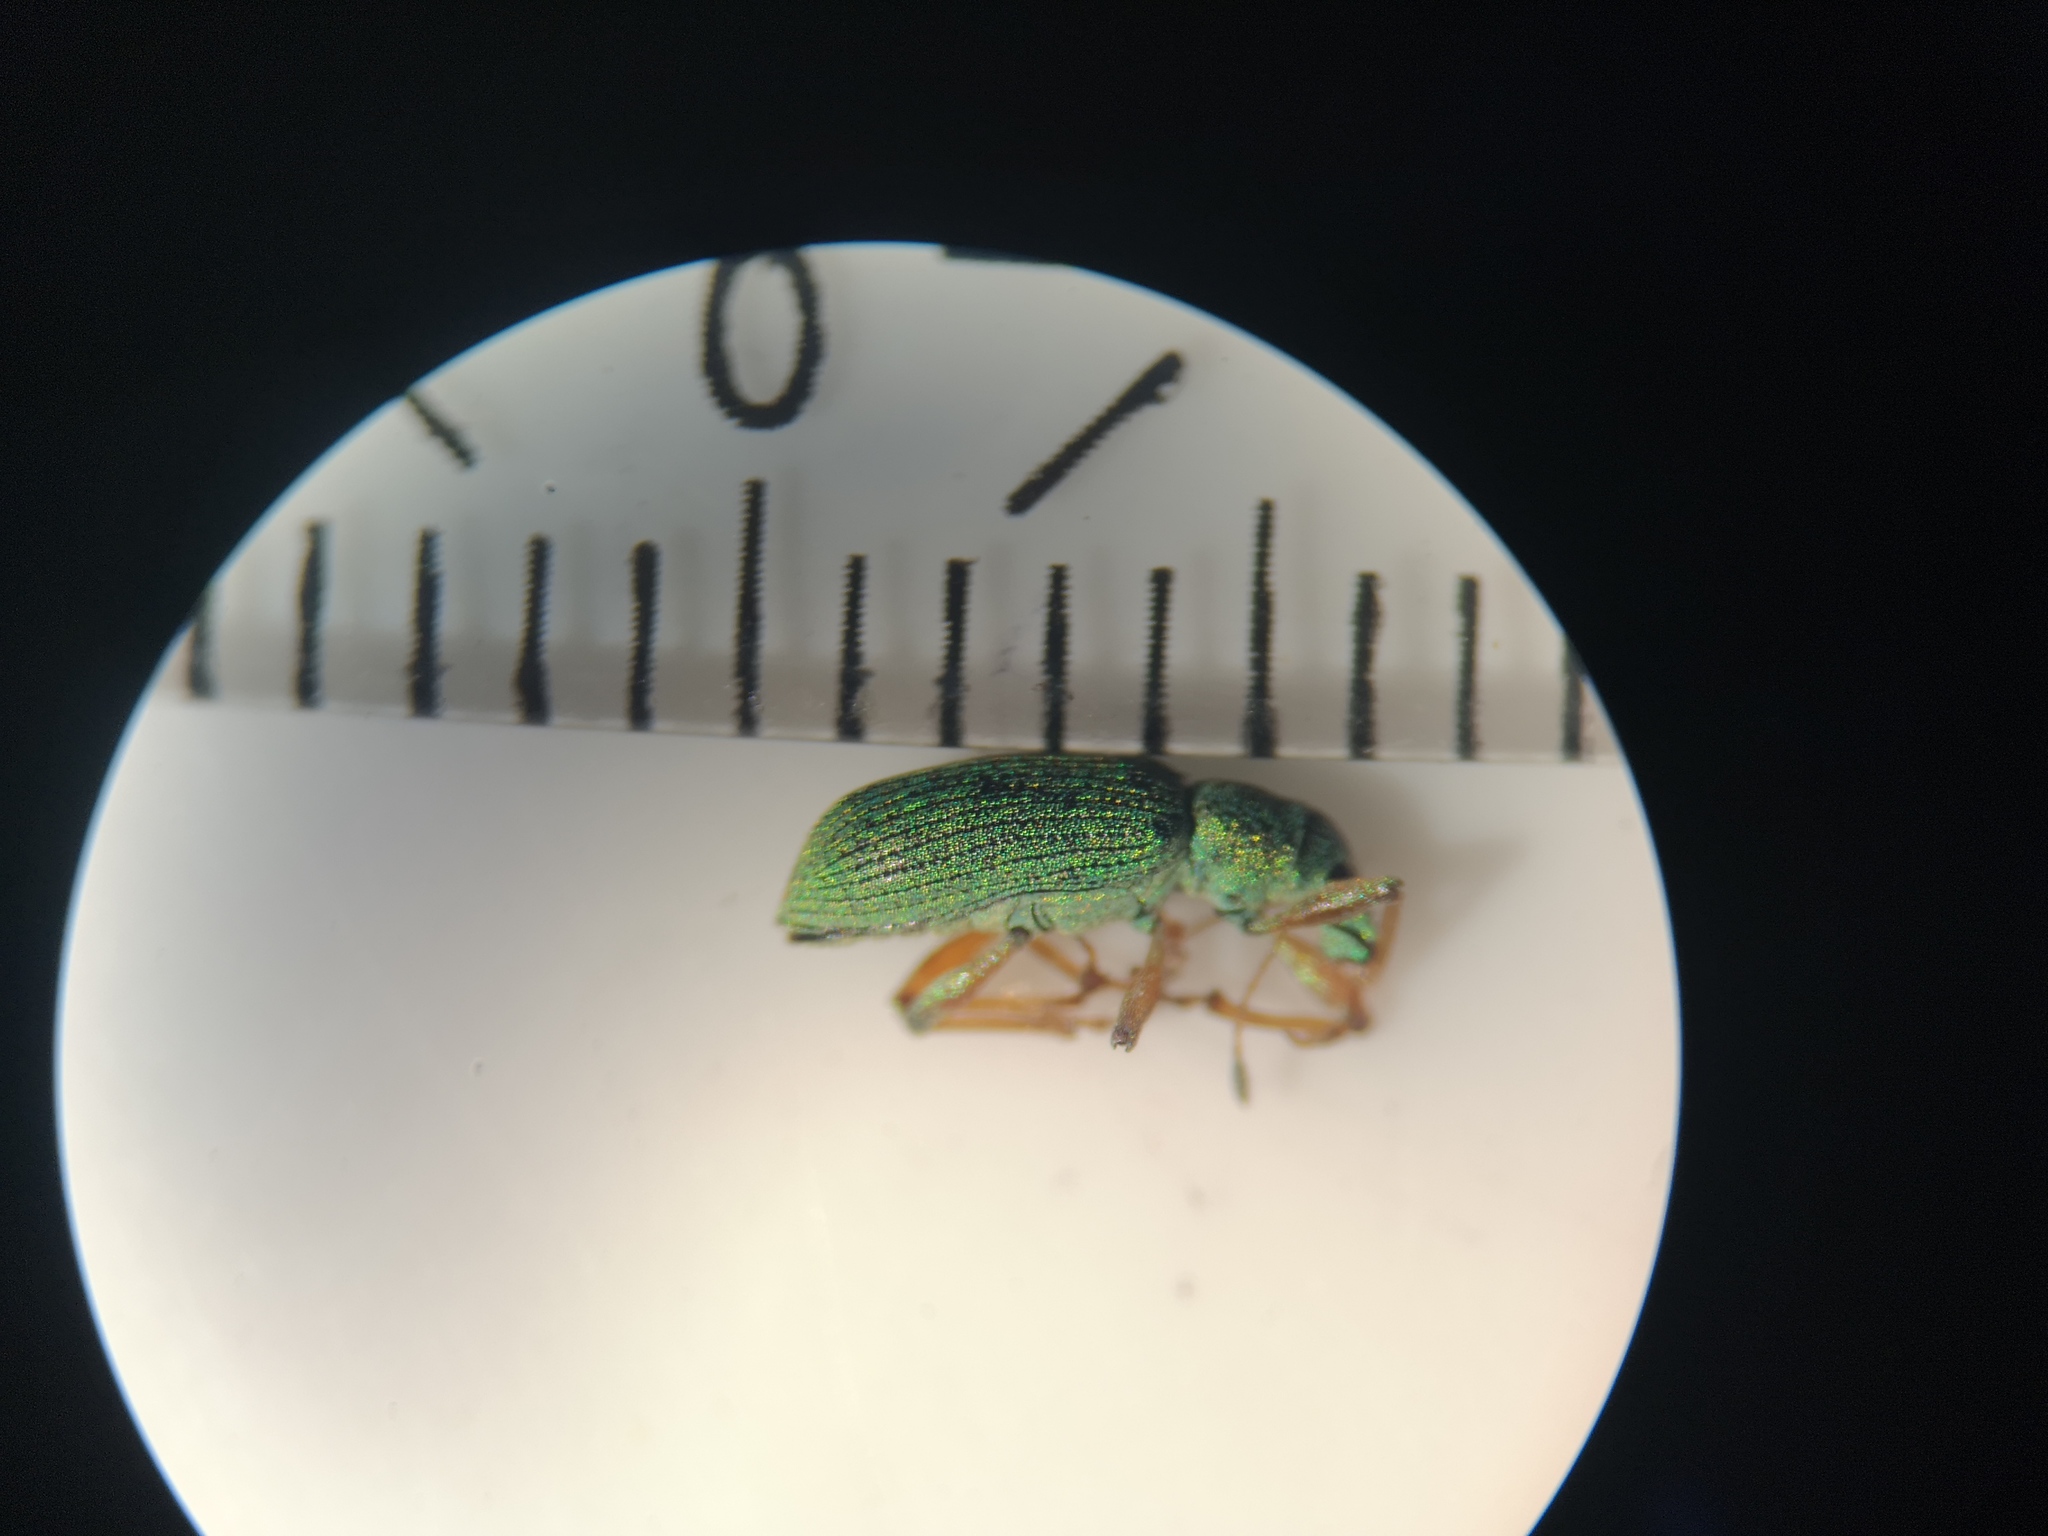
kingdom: Animalia
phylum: Arthropoda
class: Insecta
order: Coleoptera
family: Curculionidae
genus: Polydrusus
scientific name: Polydrusus formosus
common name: Weevil
